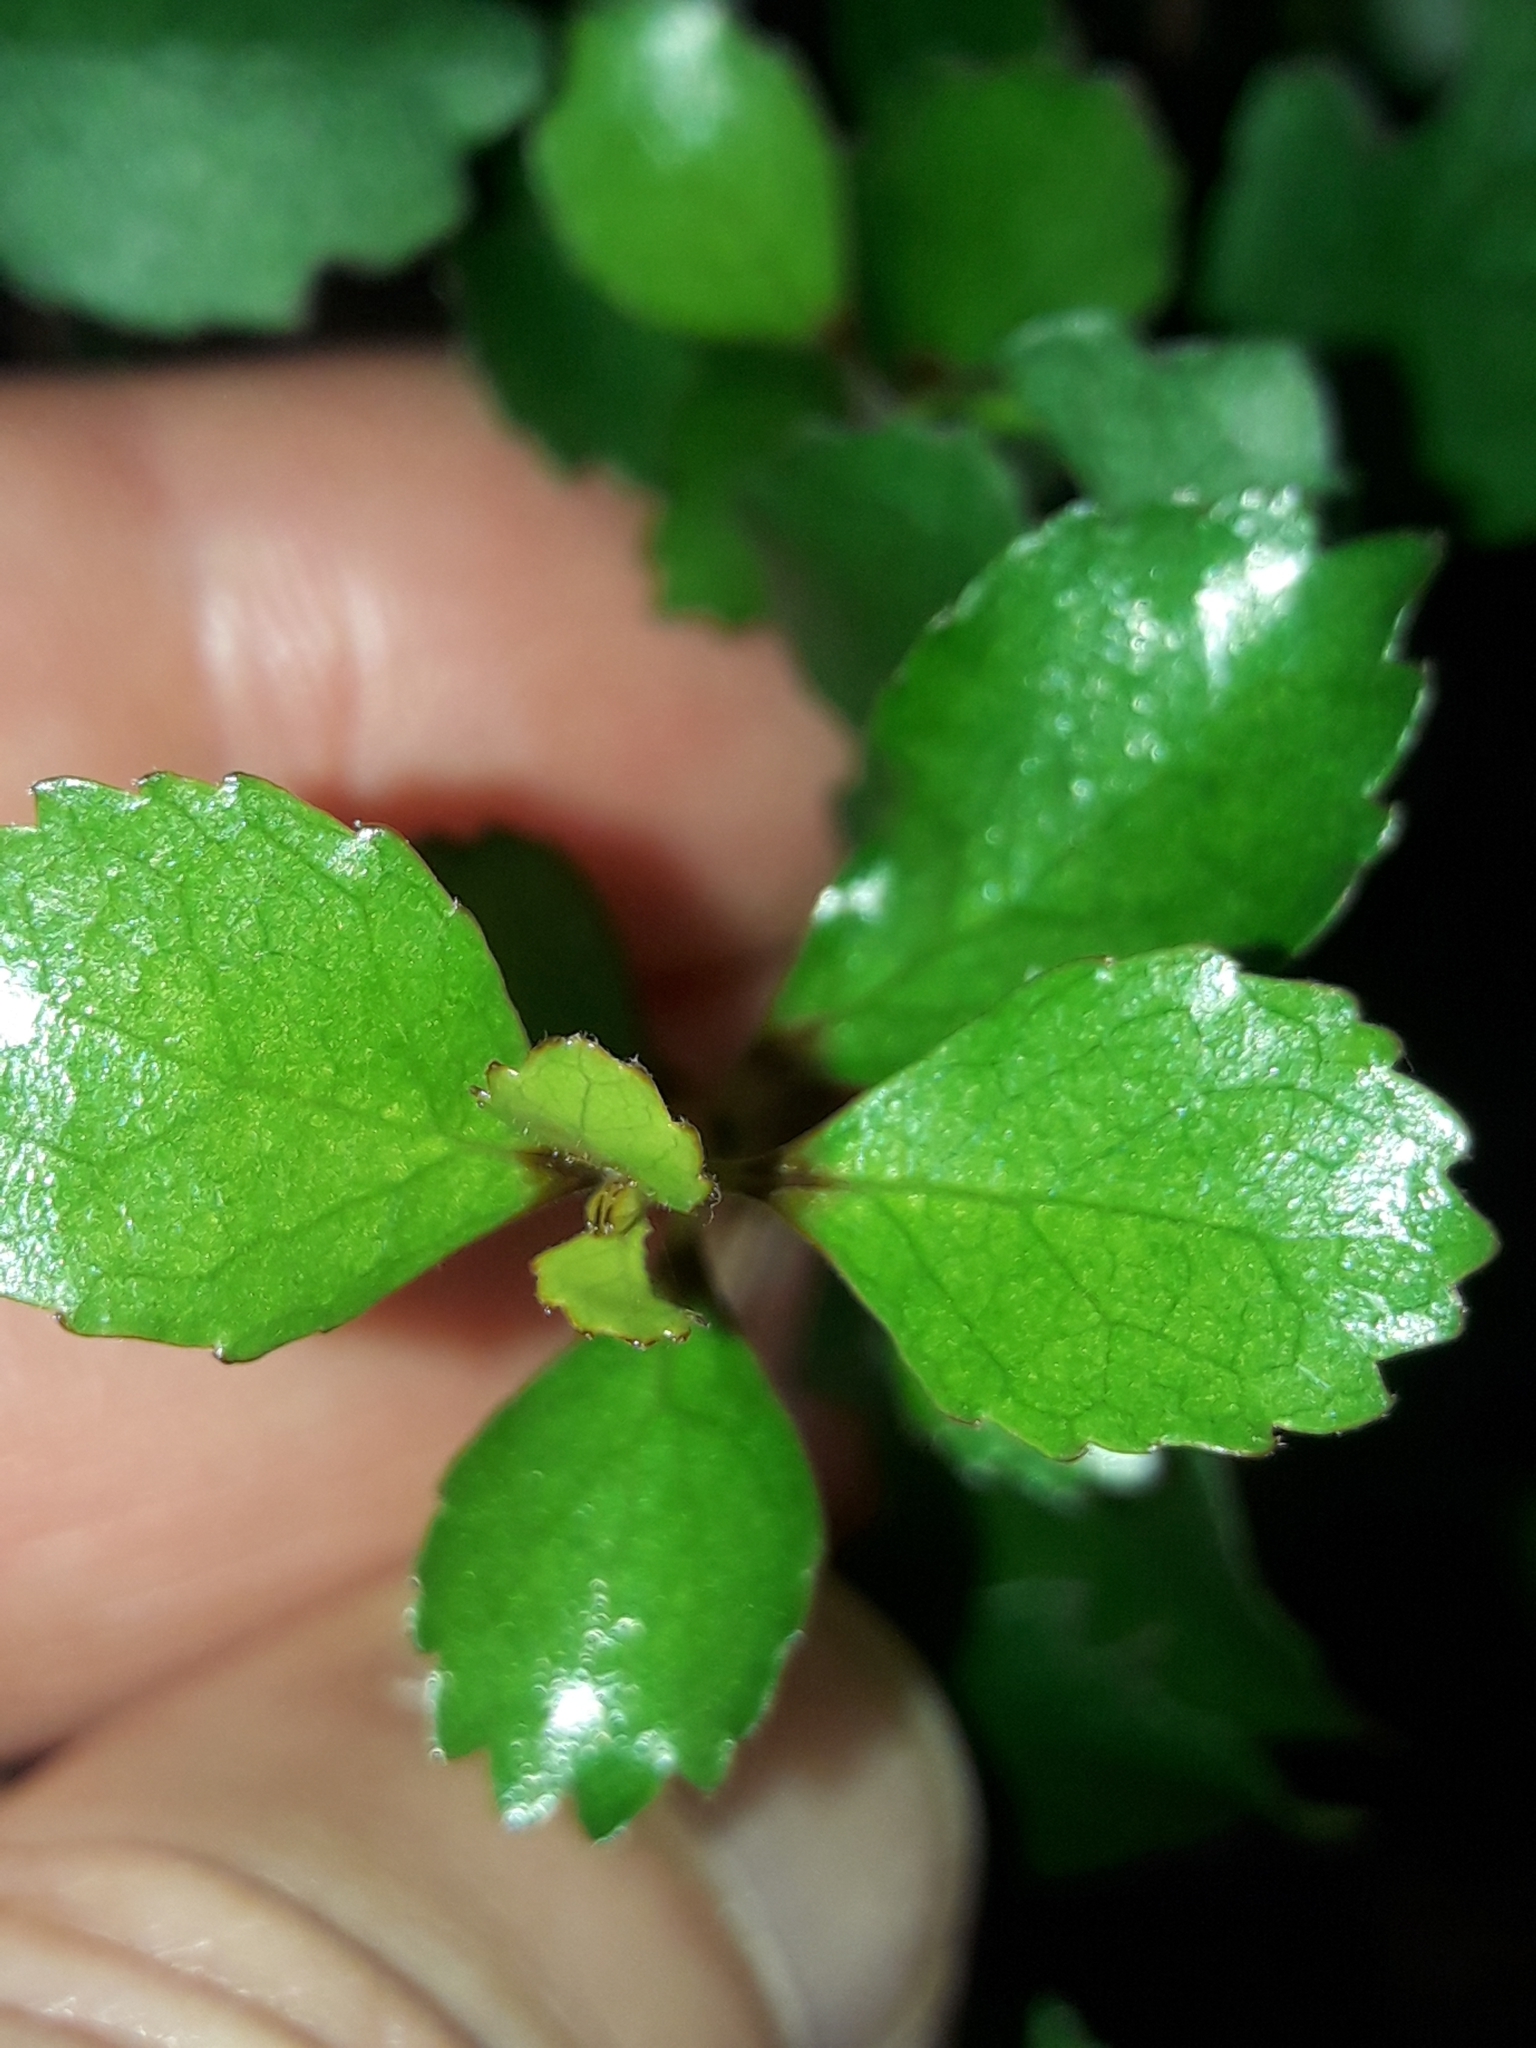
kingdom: Plantae
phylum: Tracheophyta
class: Magnoliopsida
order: Oxalidales
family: Elaeocarpaceae
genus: Aristotelia
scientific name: Aristotelia
